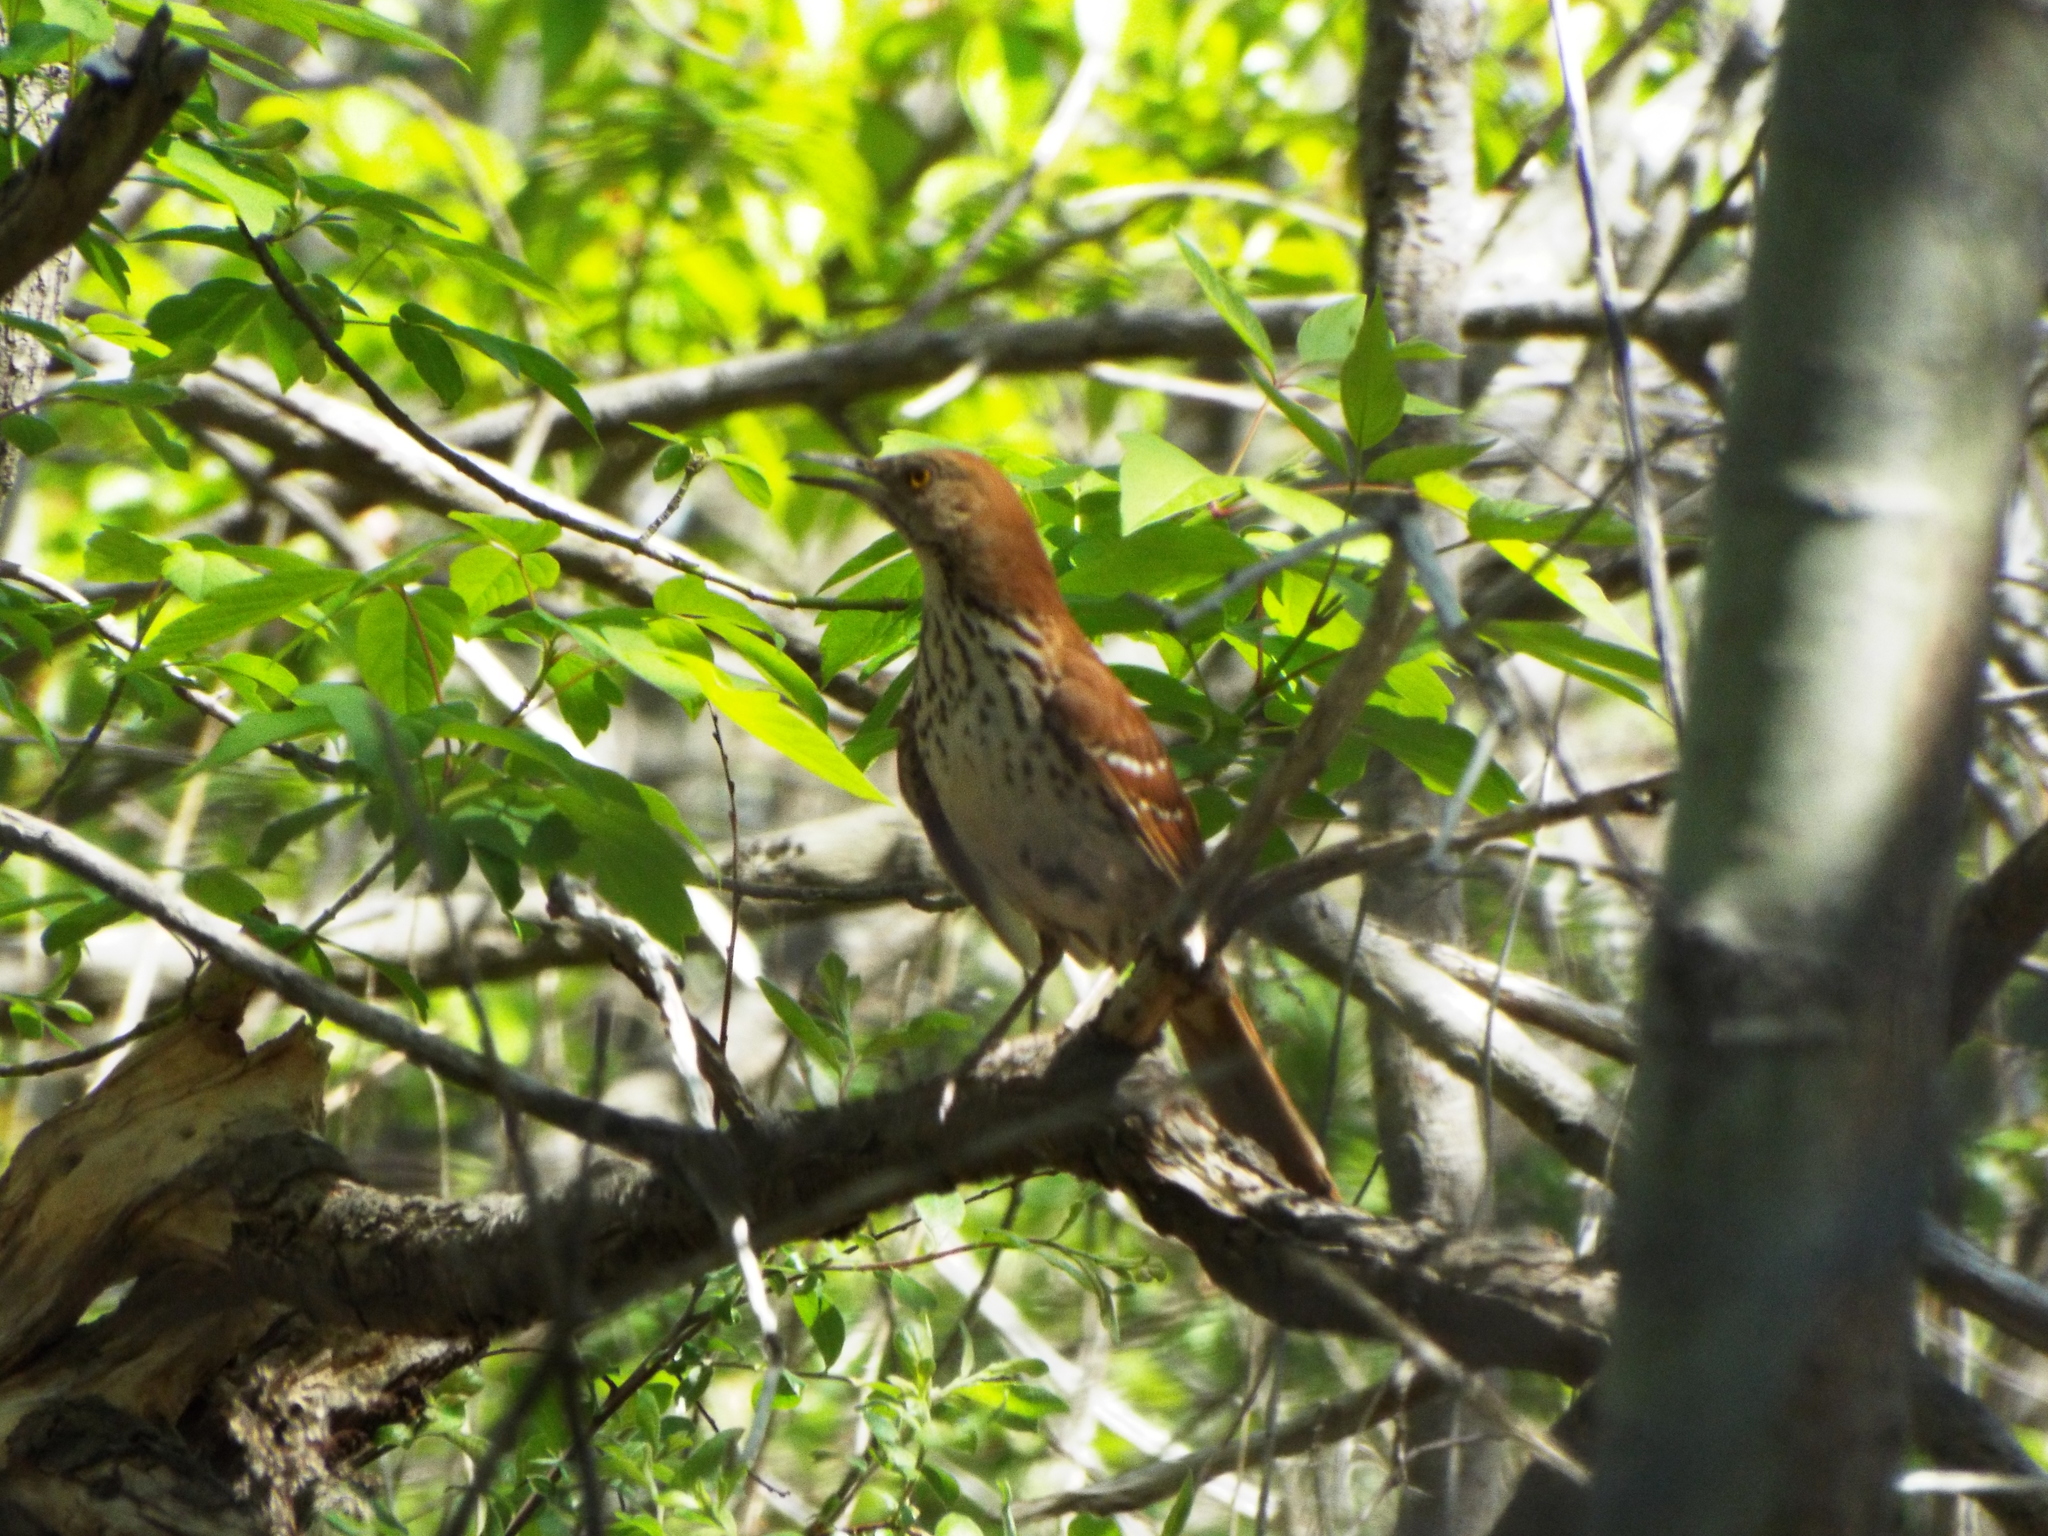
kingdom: Animalia
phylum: Chordata
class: Aves
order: Passeriformes
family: Mimidae
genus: Toxostoma
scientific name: Toxostoma rufum
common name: Brown thrasher
